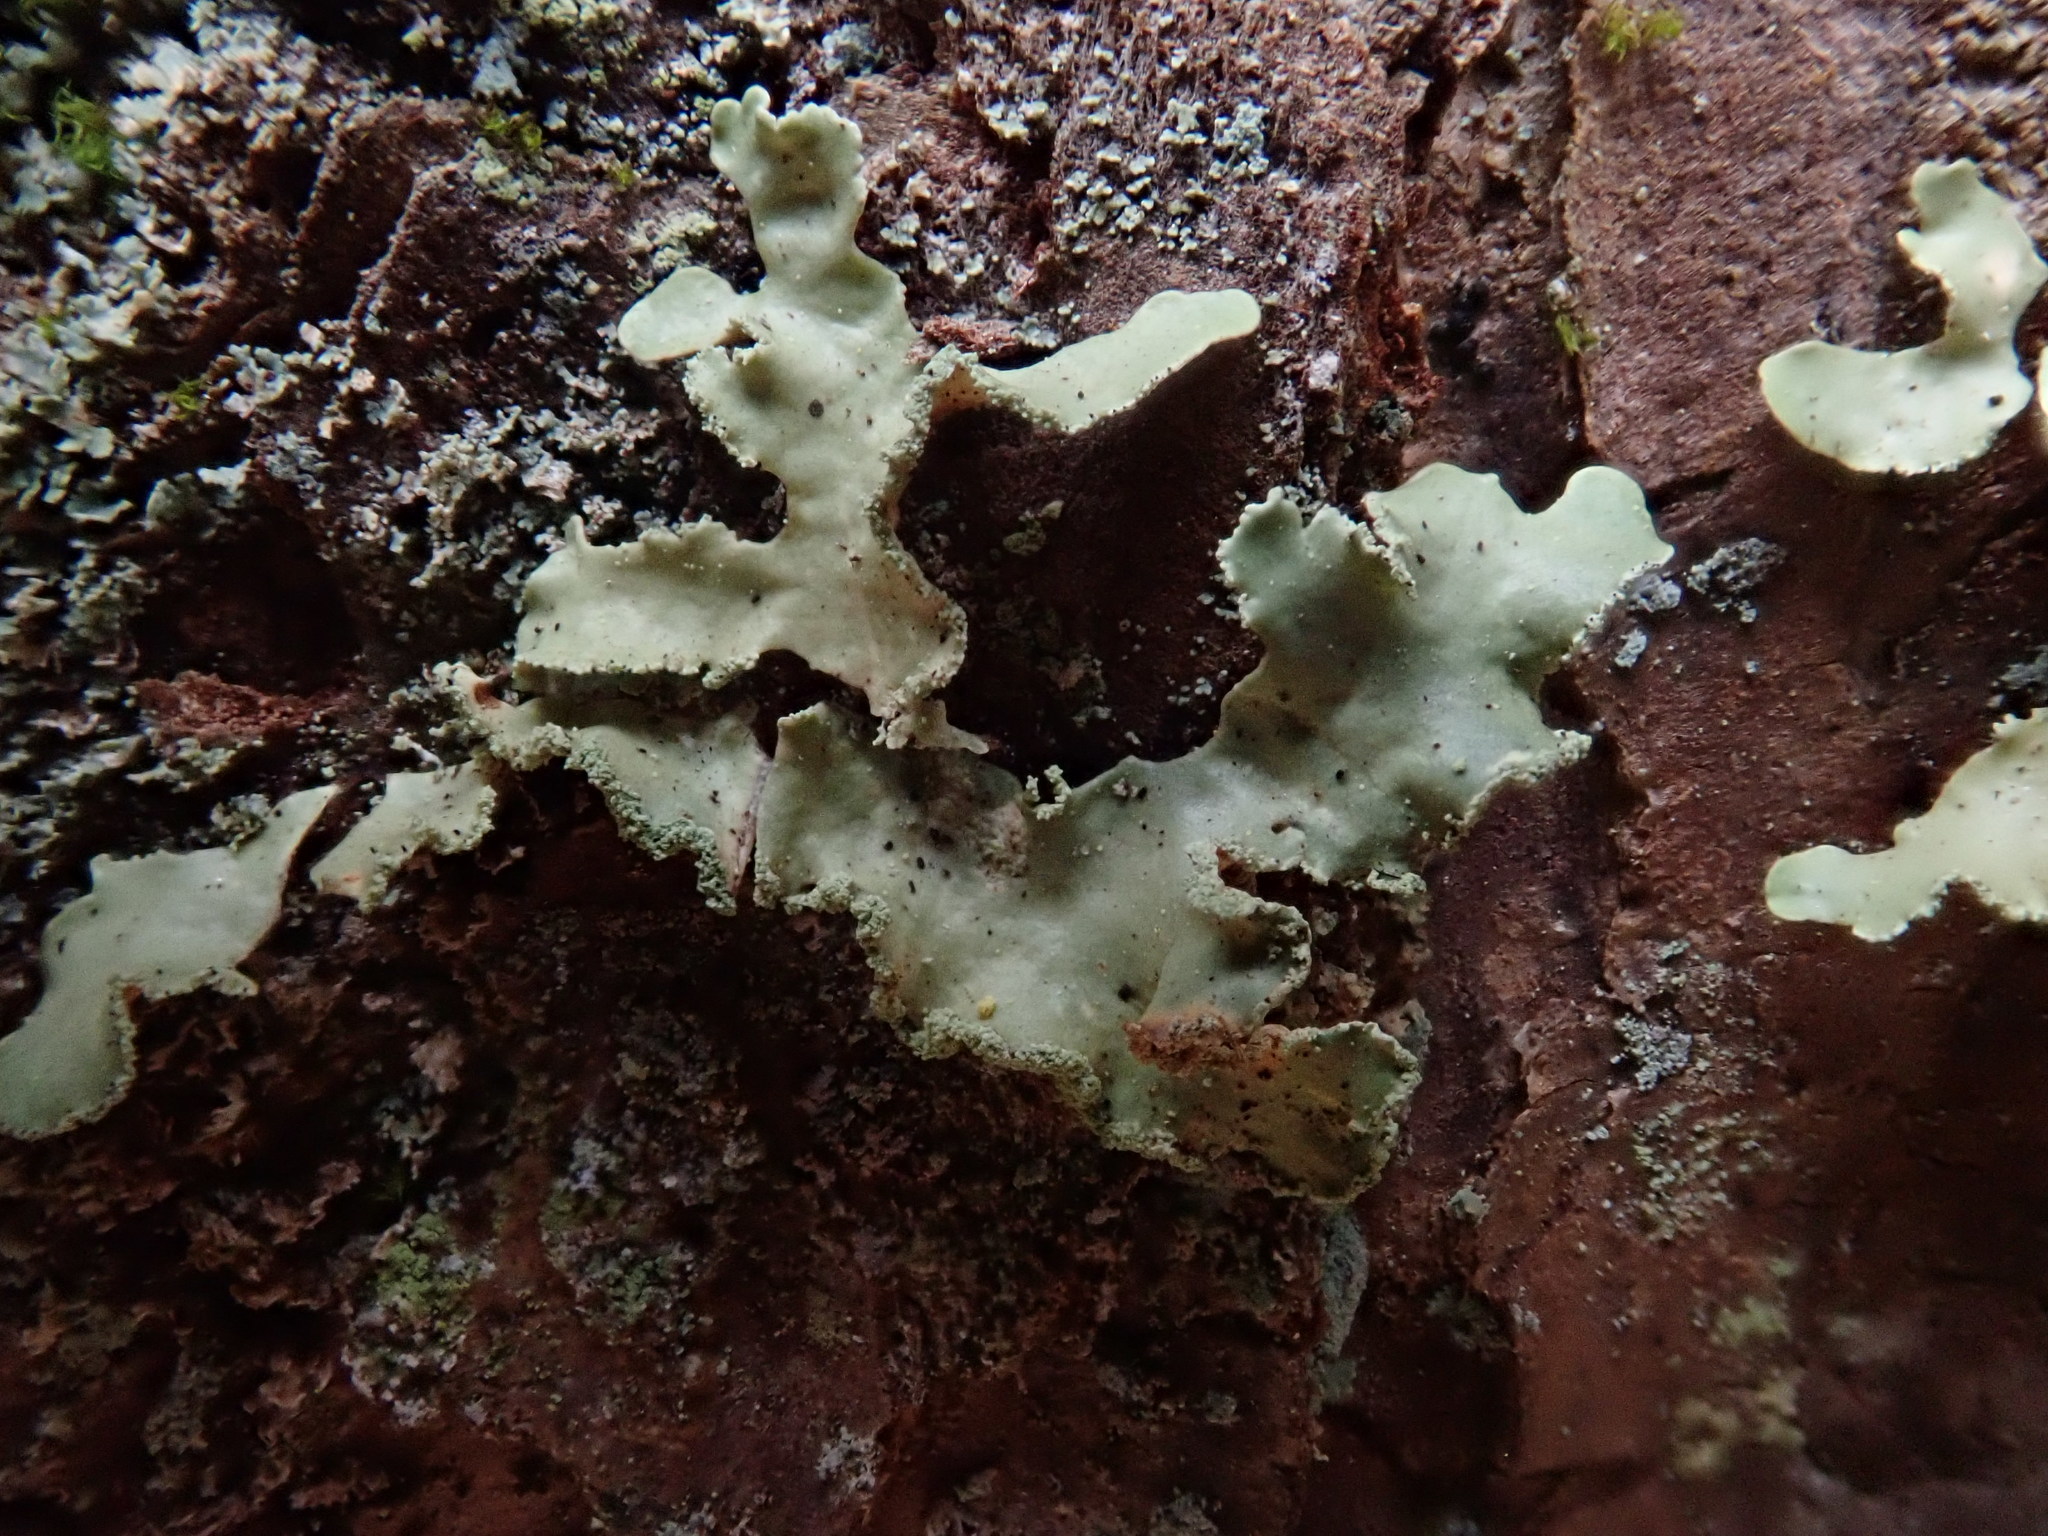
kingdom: Fungi
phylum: Ascomycota
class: Lecanoromycetes
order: Lecanorales
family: Parmeliaceae
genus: Usnocetraria
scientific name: Usnocetraria oakesiana
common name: Yellow ribbon lichen
